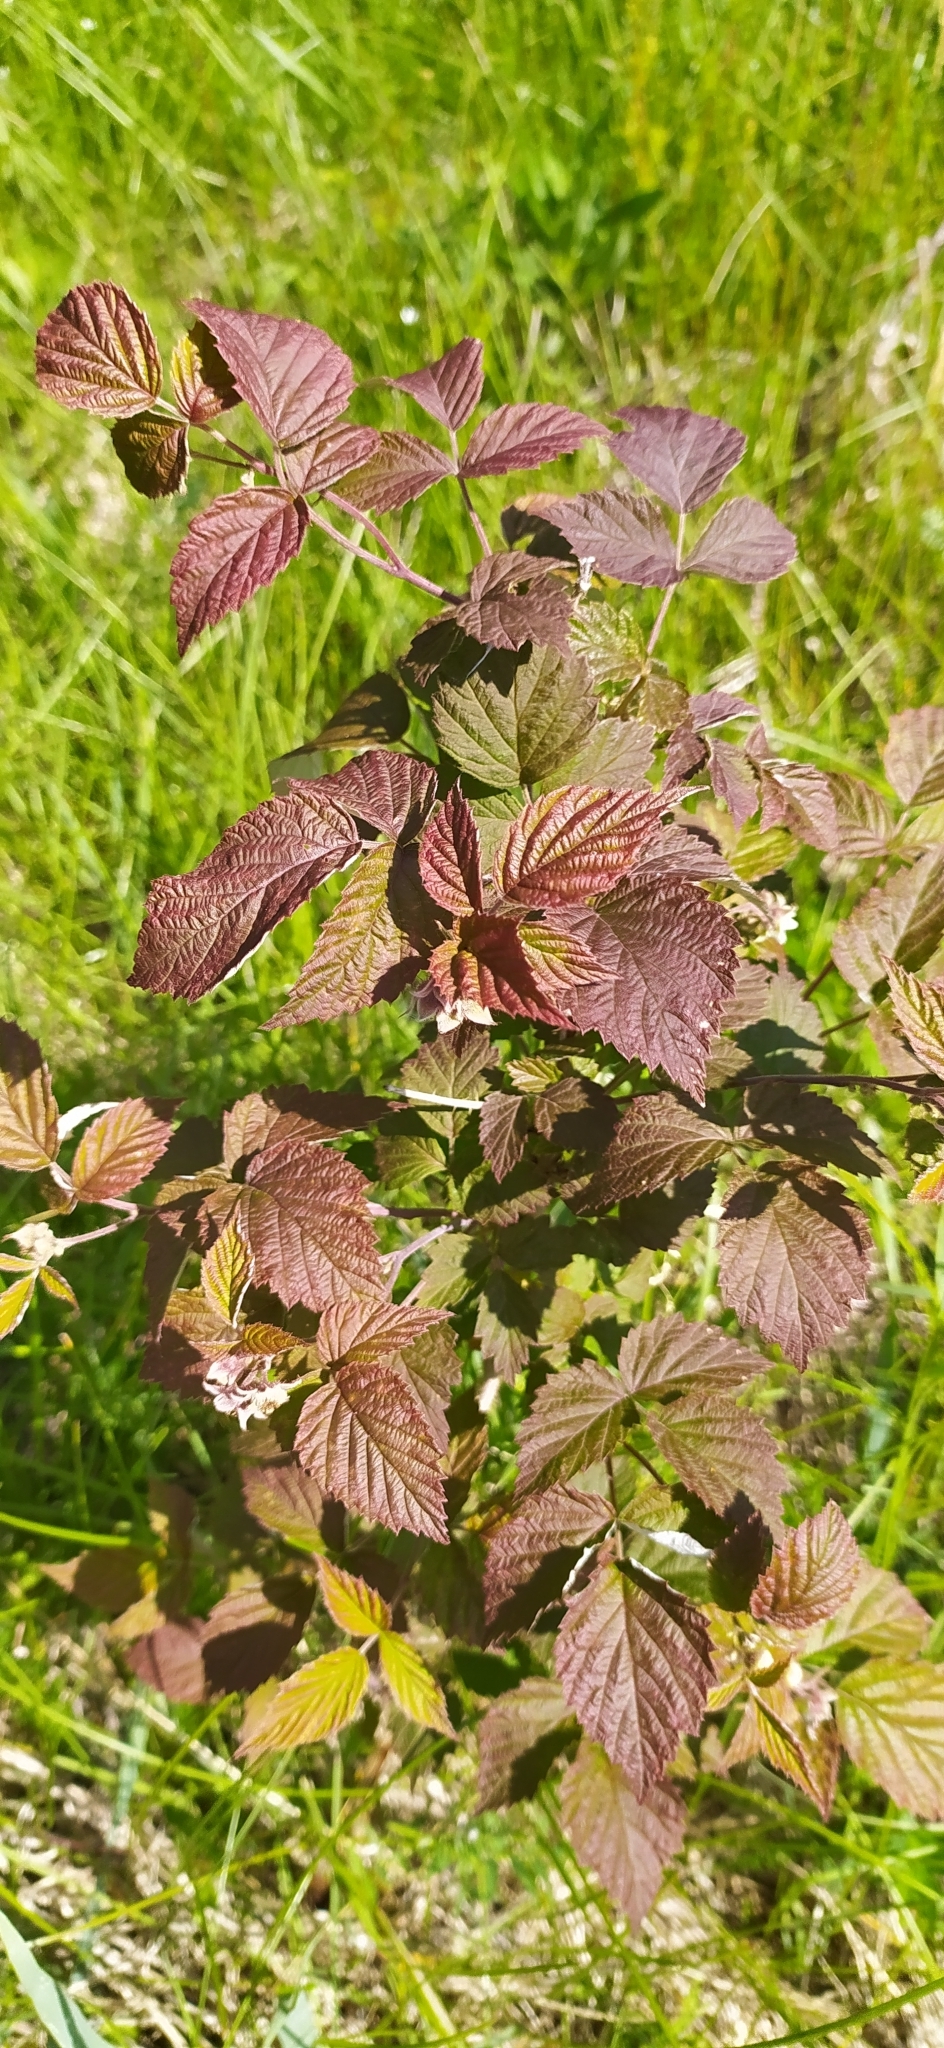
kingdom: Plantae
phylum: Tracheophyta
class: Magnoliopsida
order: Rosales
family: Rosaceae
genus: Rubus
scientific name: Rubus idaeus
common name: Raspberry
